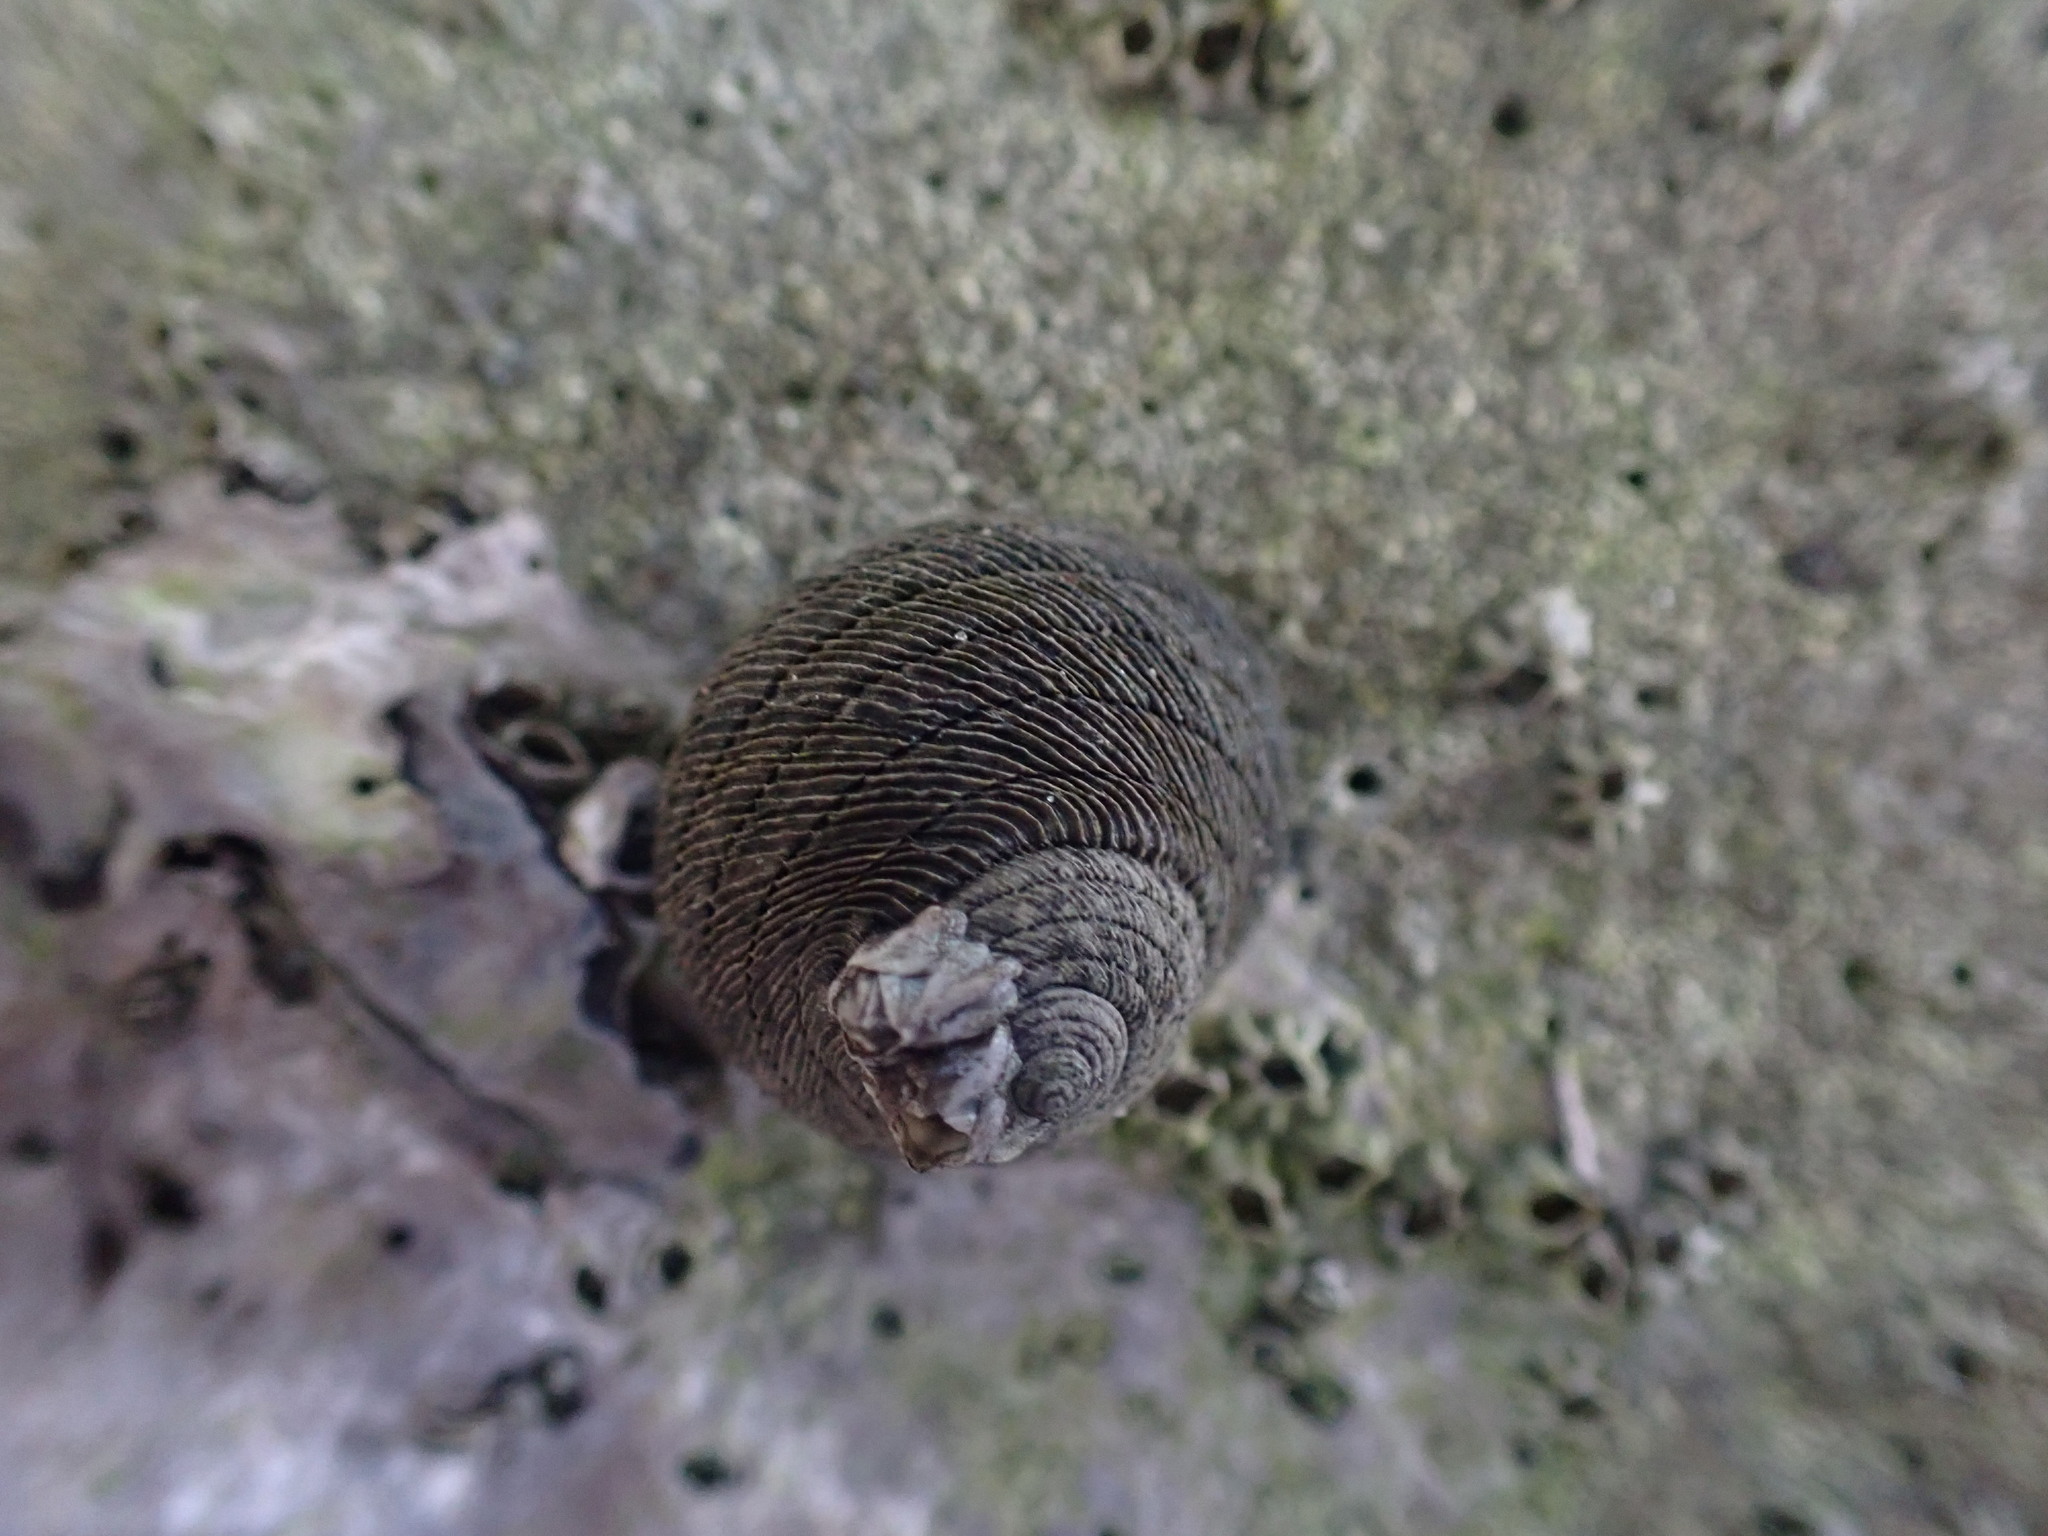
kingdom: Animalia
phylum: Mollusca
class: Gastropoda
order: Trochida
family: Trochidae
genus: Diloma
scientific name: Diloma aethiops
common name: Scorched monodont
